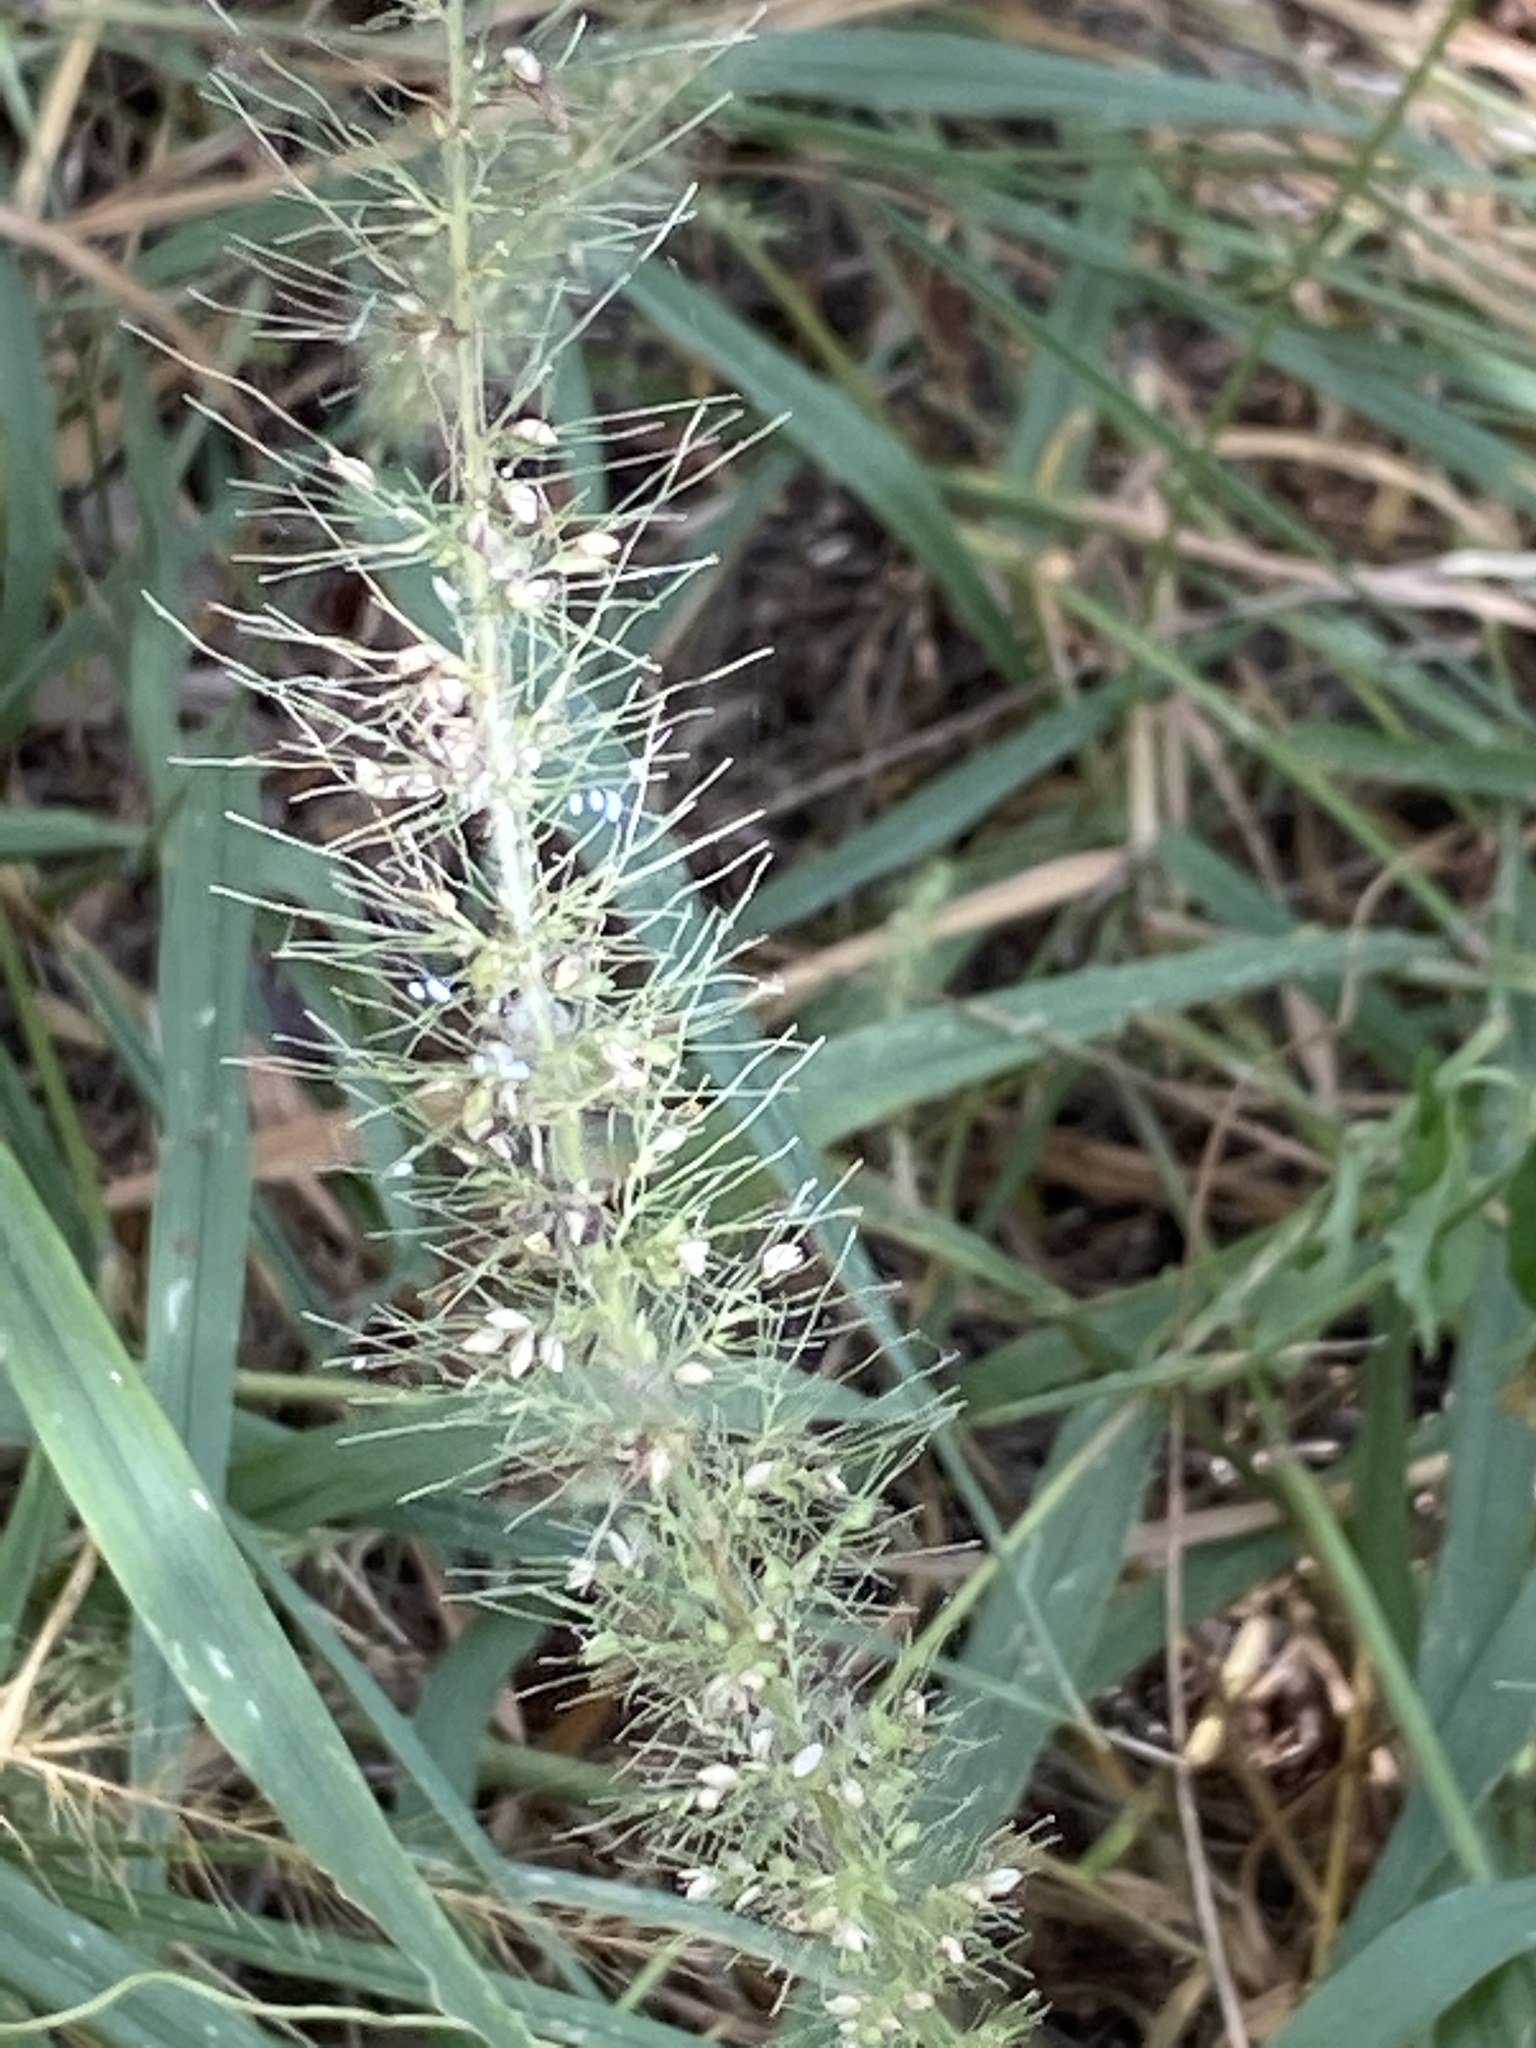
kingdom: Plantae
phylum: Tracheophyta
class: Liliopsida
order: Poales
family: Poaceae
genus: Setaria
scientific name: Setaria scheelei
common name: Southwestern bristle grass
